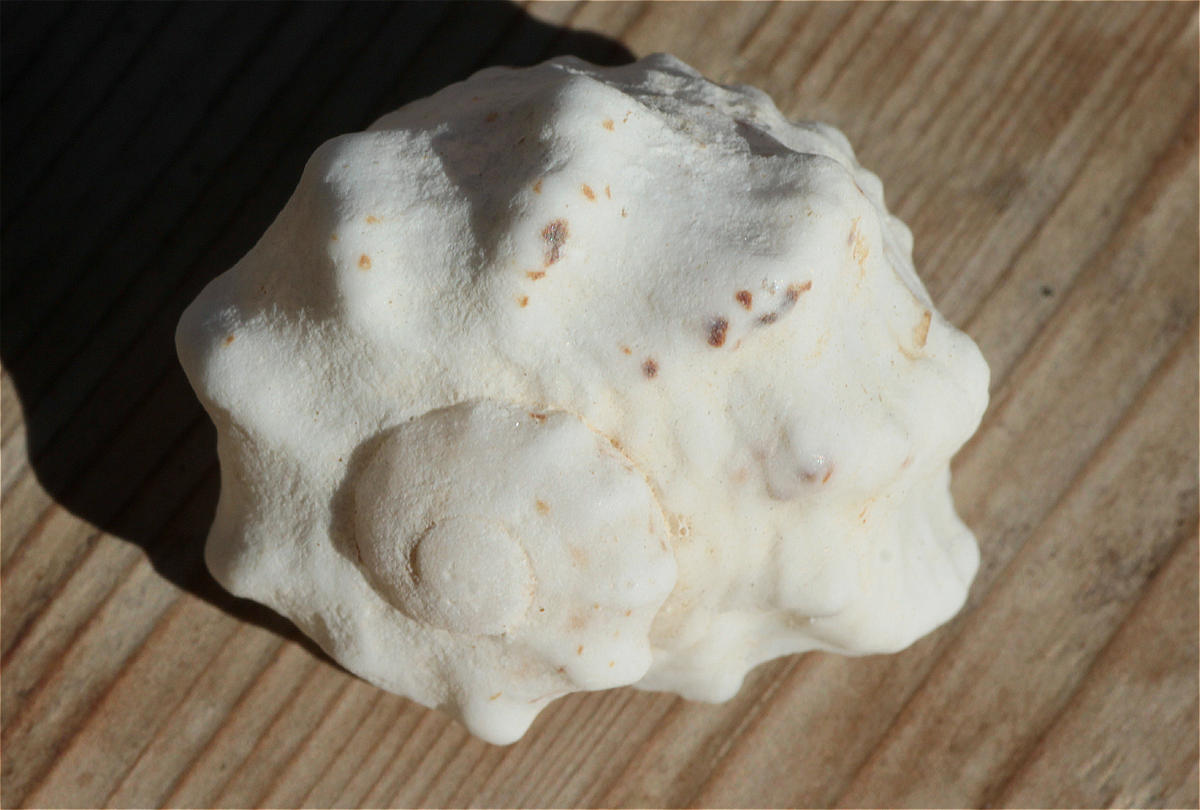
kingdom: Animalia
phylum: Mollusca
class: Gastropoda
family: Modulidae
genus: Indomodulus
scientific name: Indomodulus tectum
